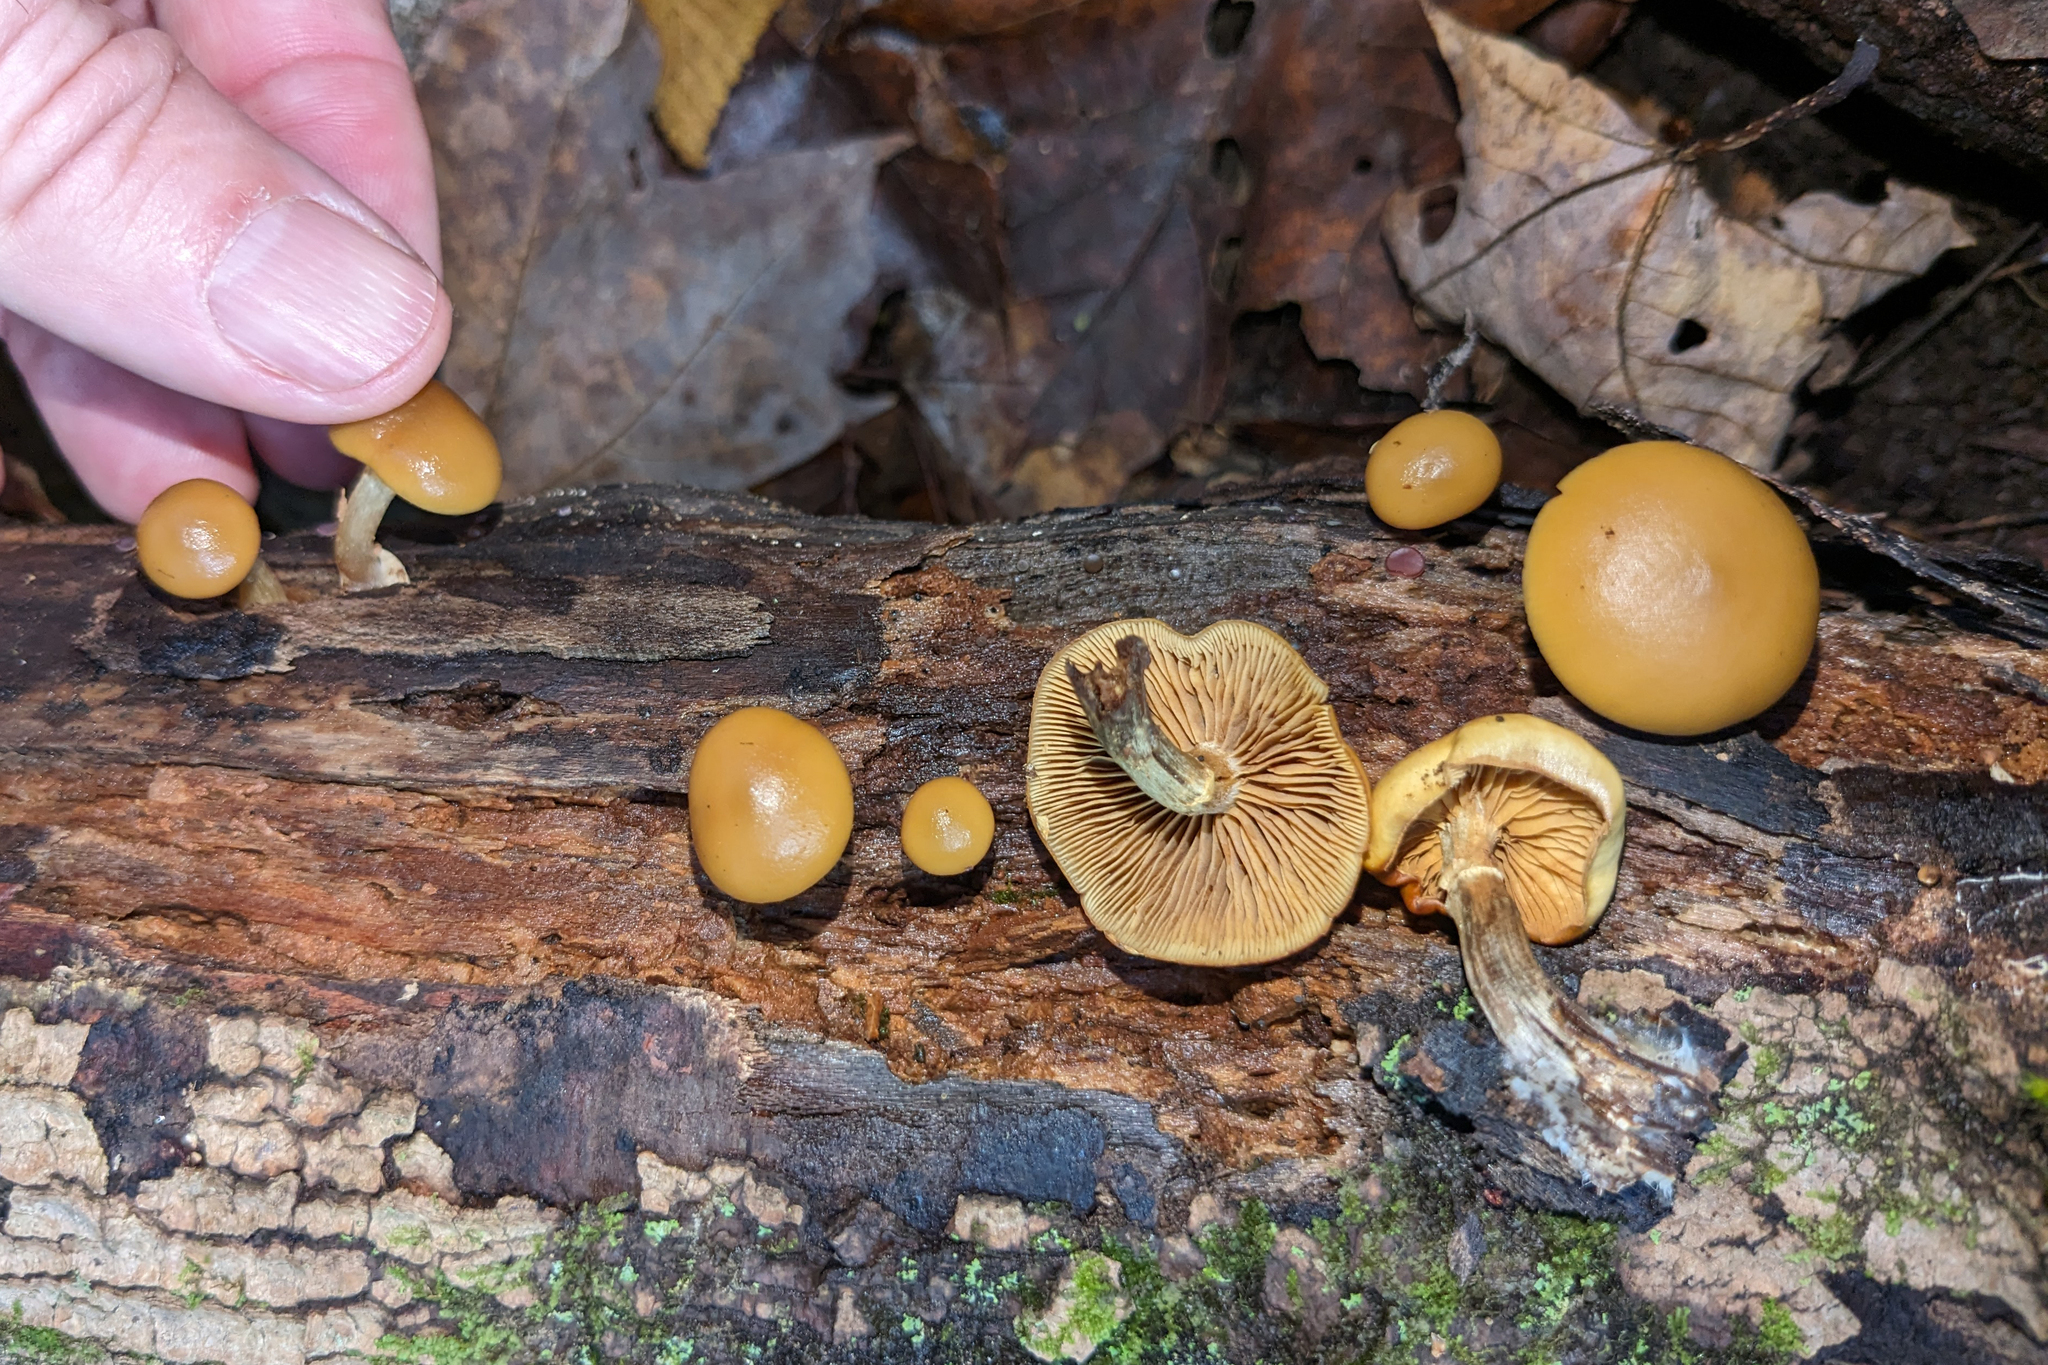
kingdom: Fungi
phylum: Basidiomycota
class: Agaricomycetes
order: Agaricales
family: Hymenogastraceae
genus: Galerina
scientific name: Galerina marginata
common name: Funeral bell
